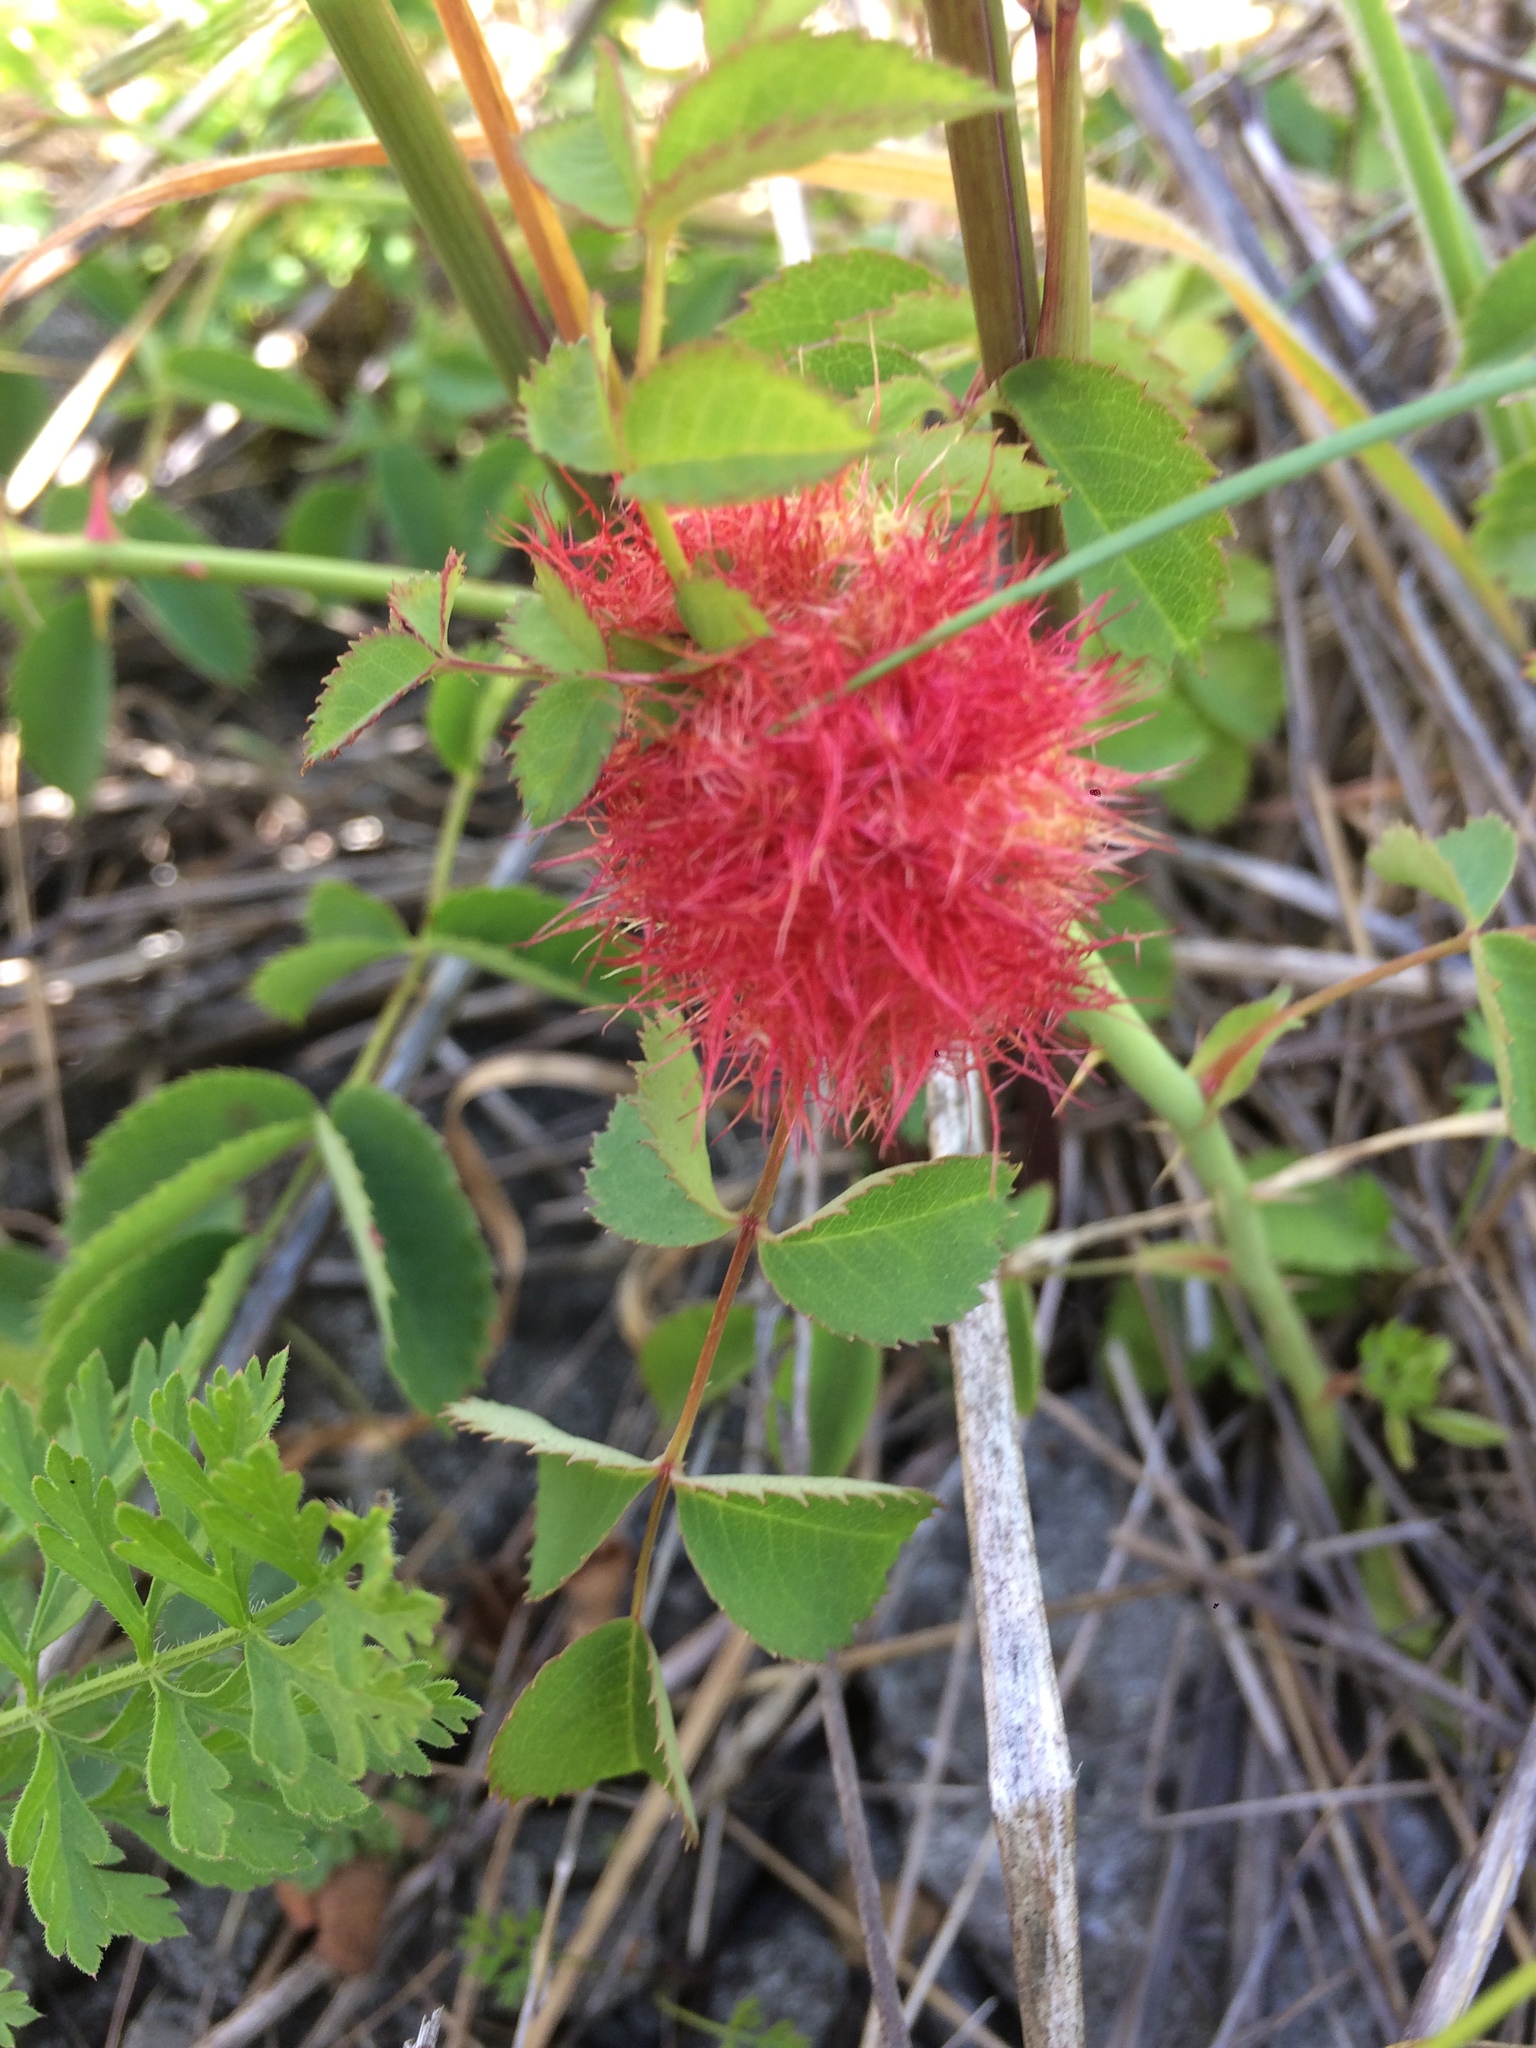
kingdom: Animalia
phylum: Arthropoda
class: Insecta
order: Hymenoptera
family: Cynipidae
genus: Diplolepis
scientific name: Diplolepis rosae
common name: Bedeguar gall
